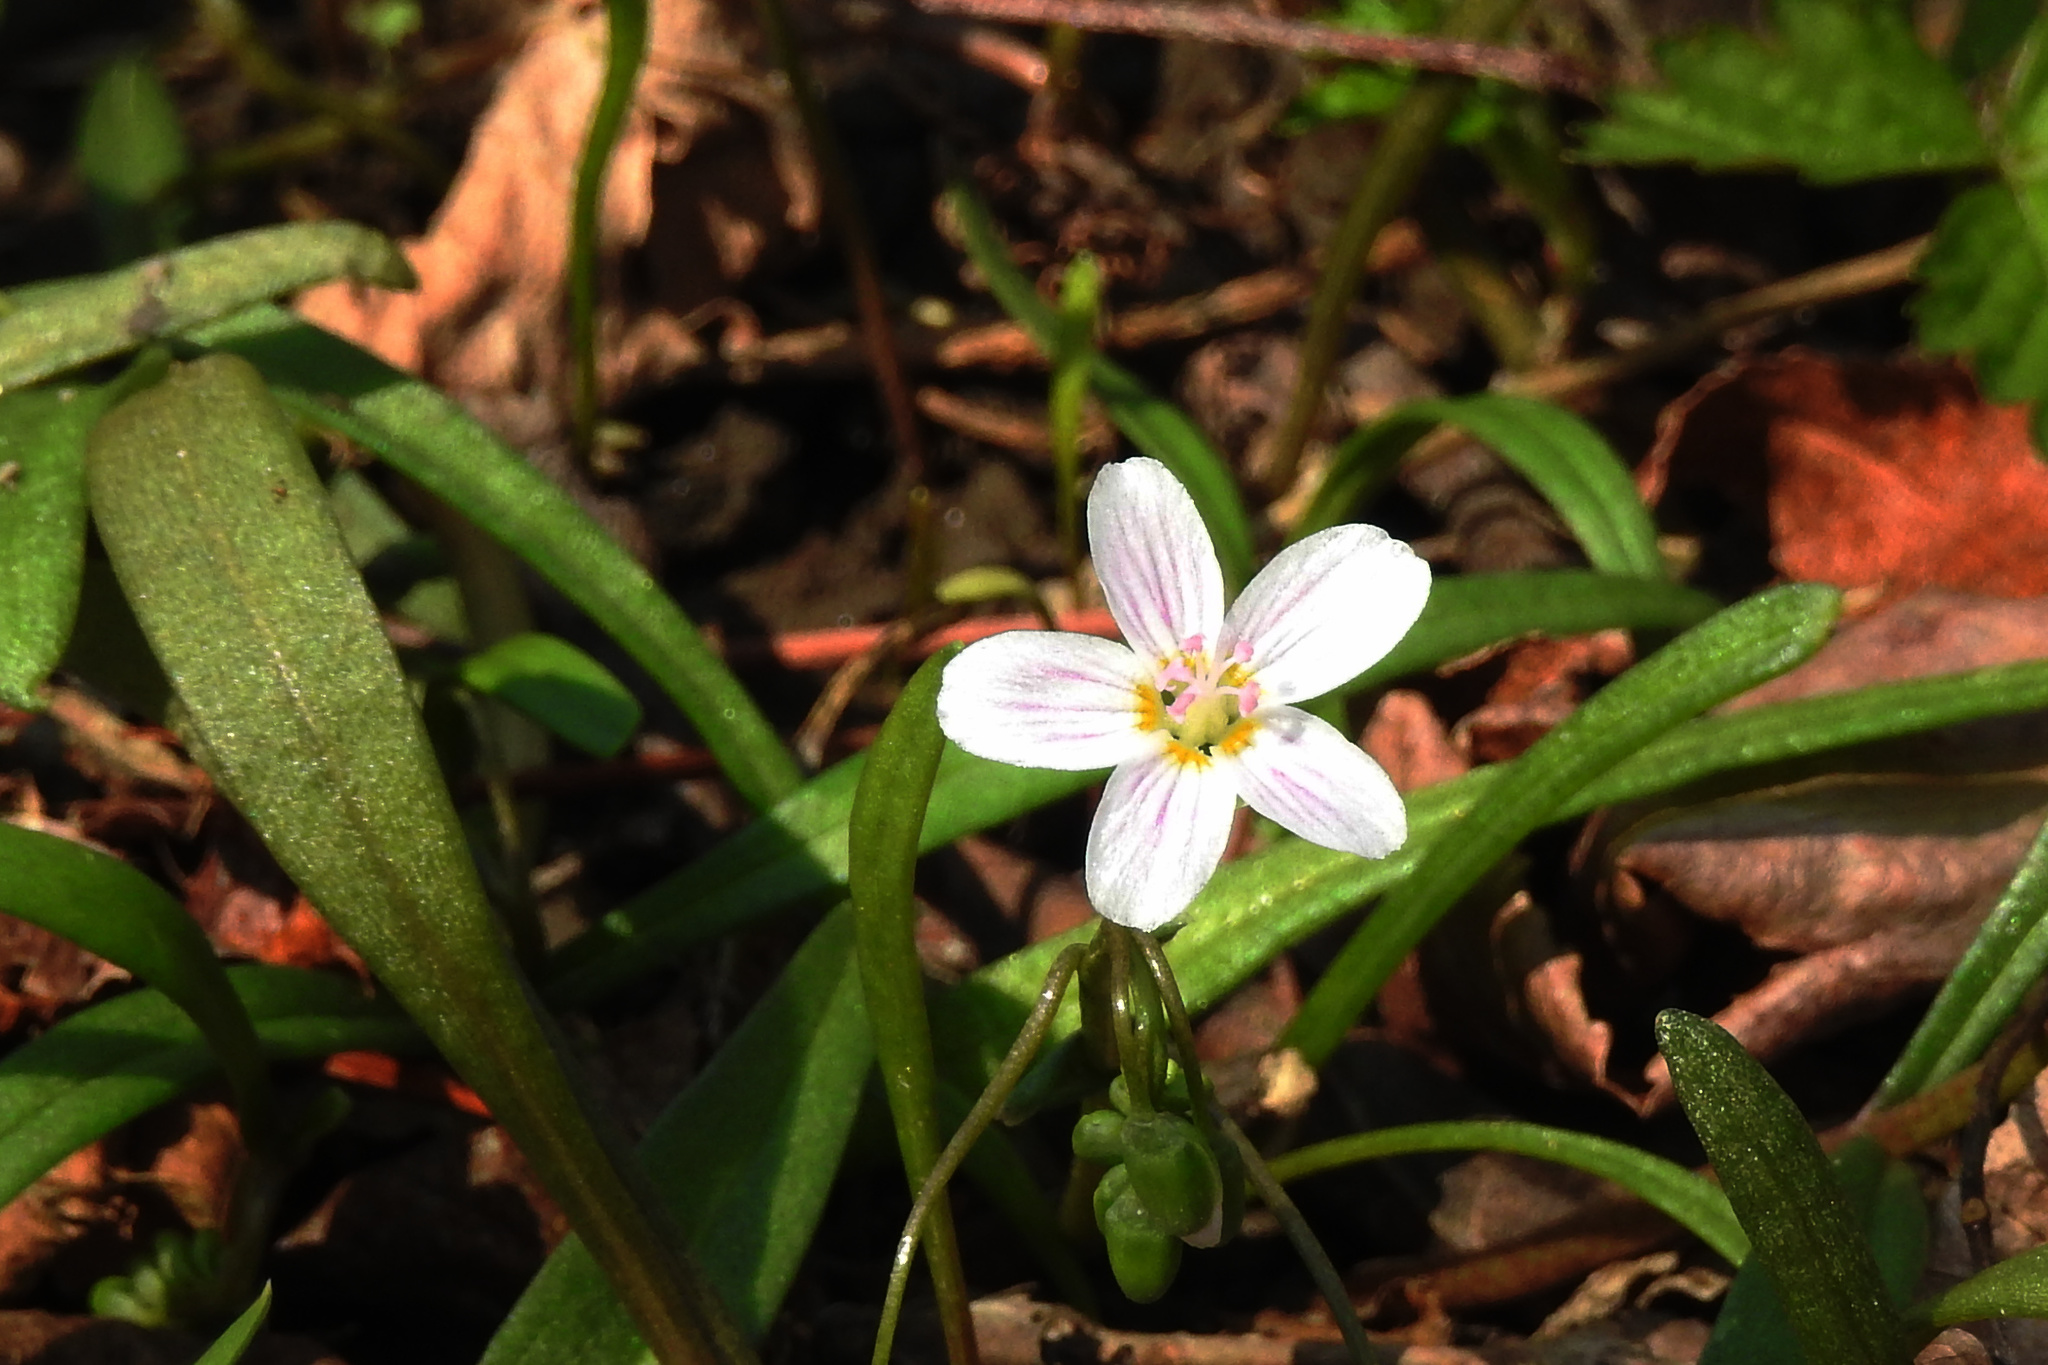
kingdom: Plantae
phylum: Tracheophyta
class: Magnoliopsida
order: Caryophyllales
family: Montiaceae
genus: Claytonia
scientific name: Claytonia virginica
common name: Virginia springbeauty
